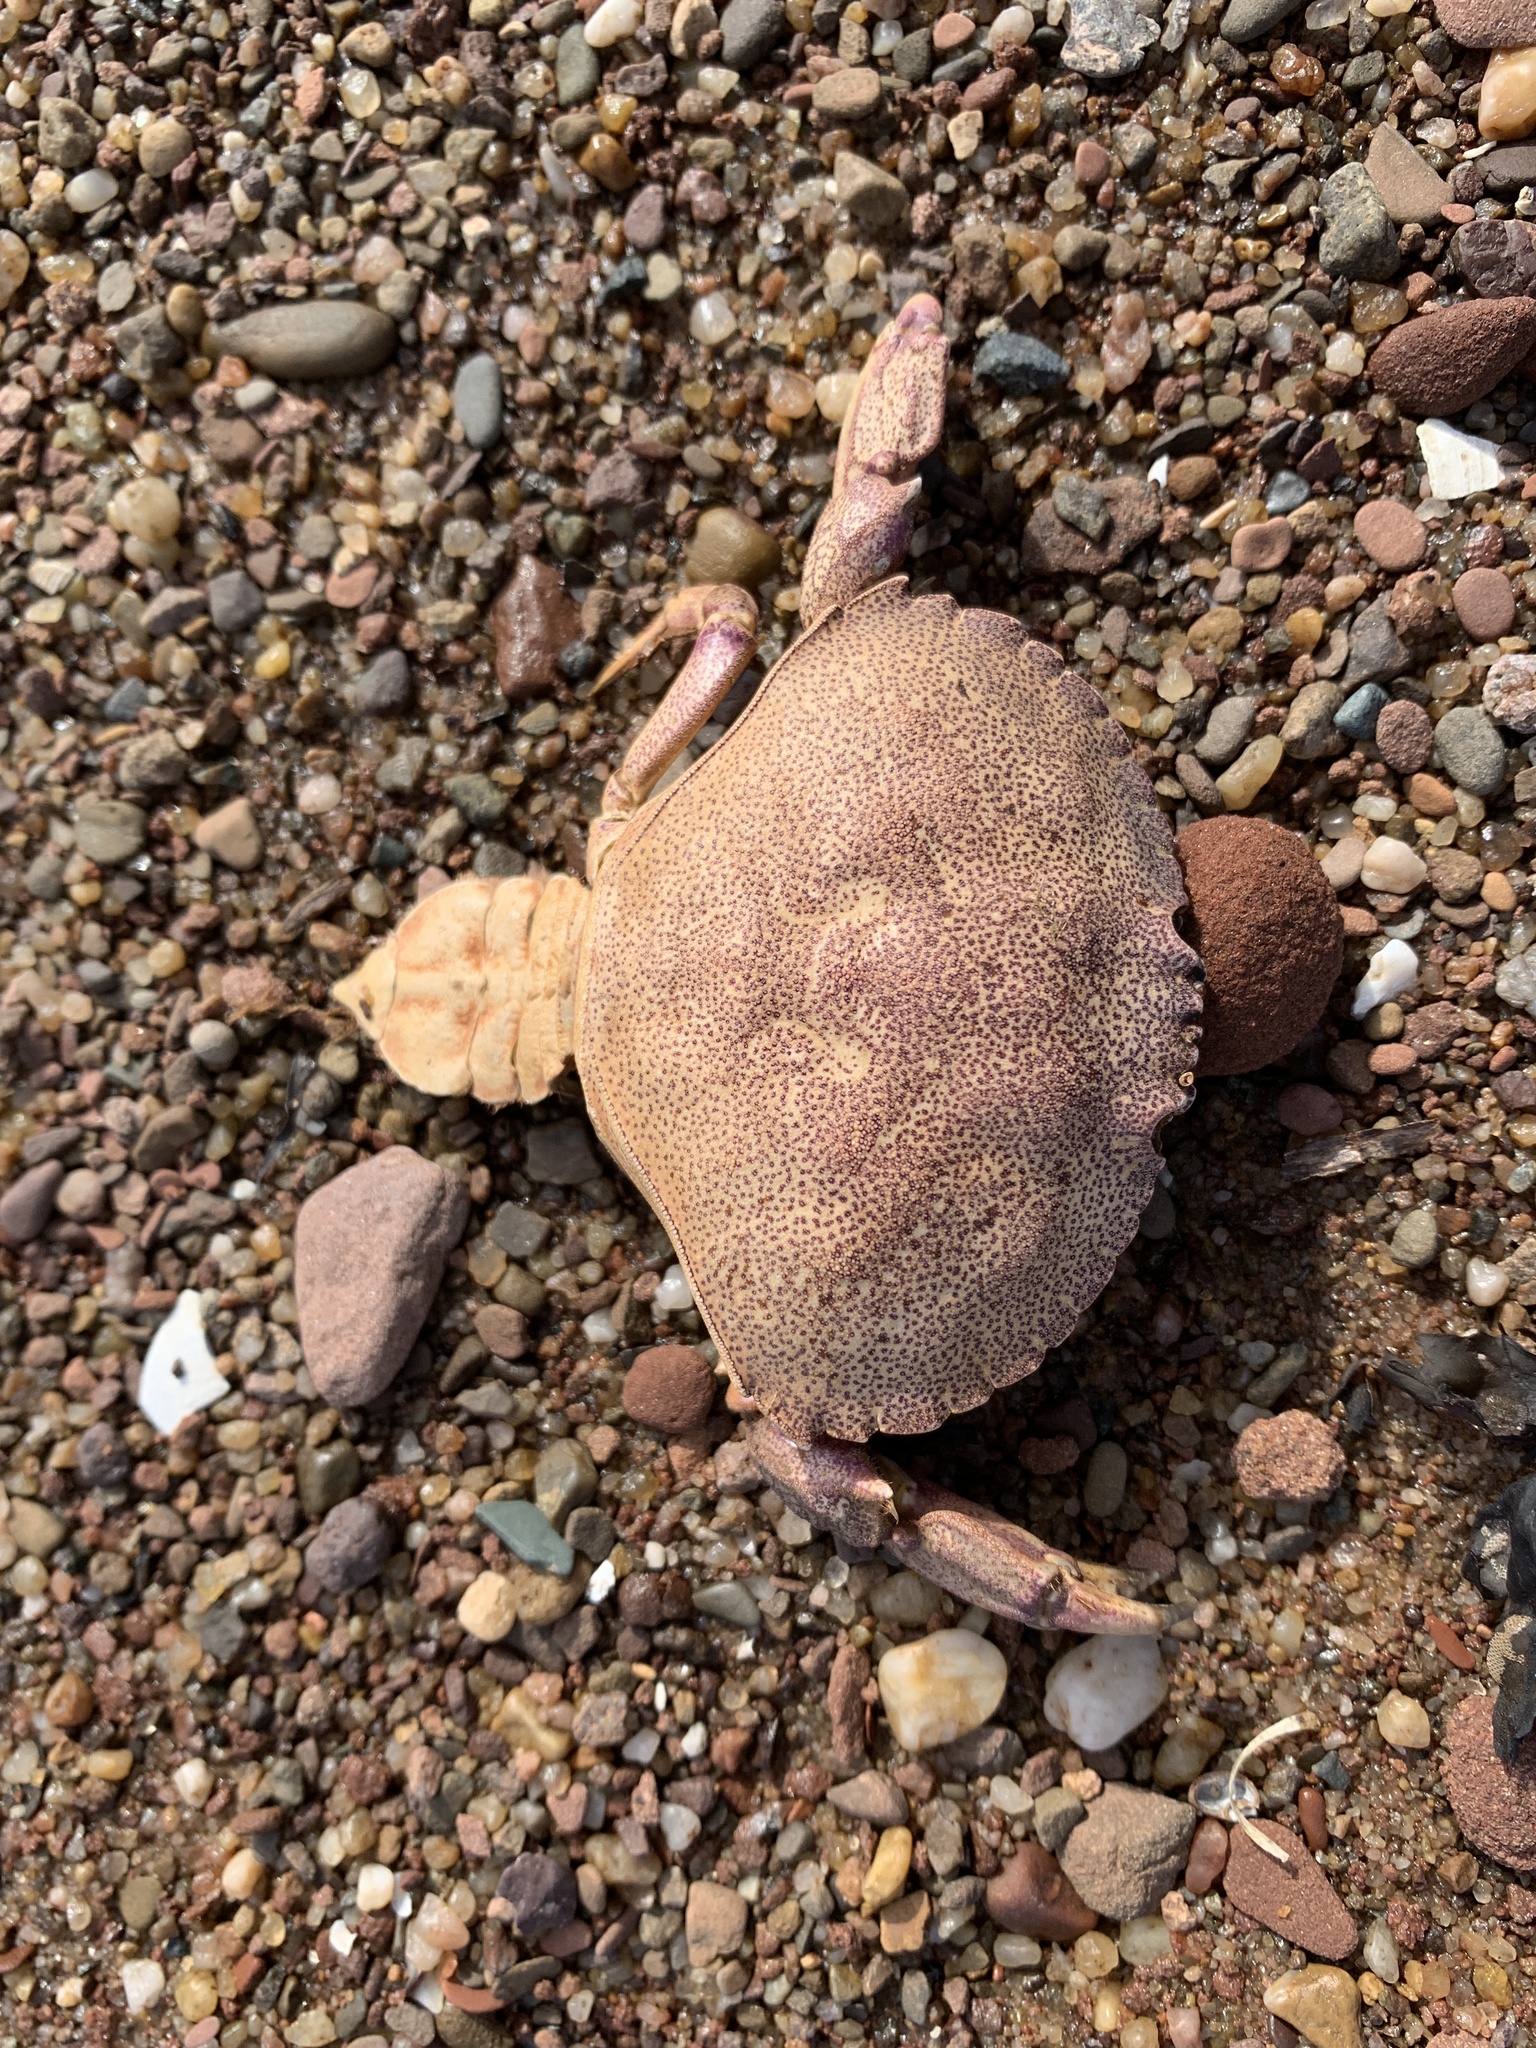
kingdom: Animalia
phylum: Arthropoda
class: Malacostraca
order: Decapoda
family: Cancridae
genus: Cancer
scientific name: Cancer irroratus
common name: Atlantic rock crab
